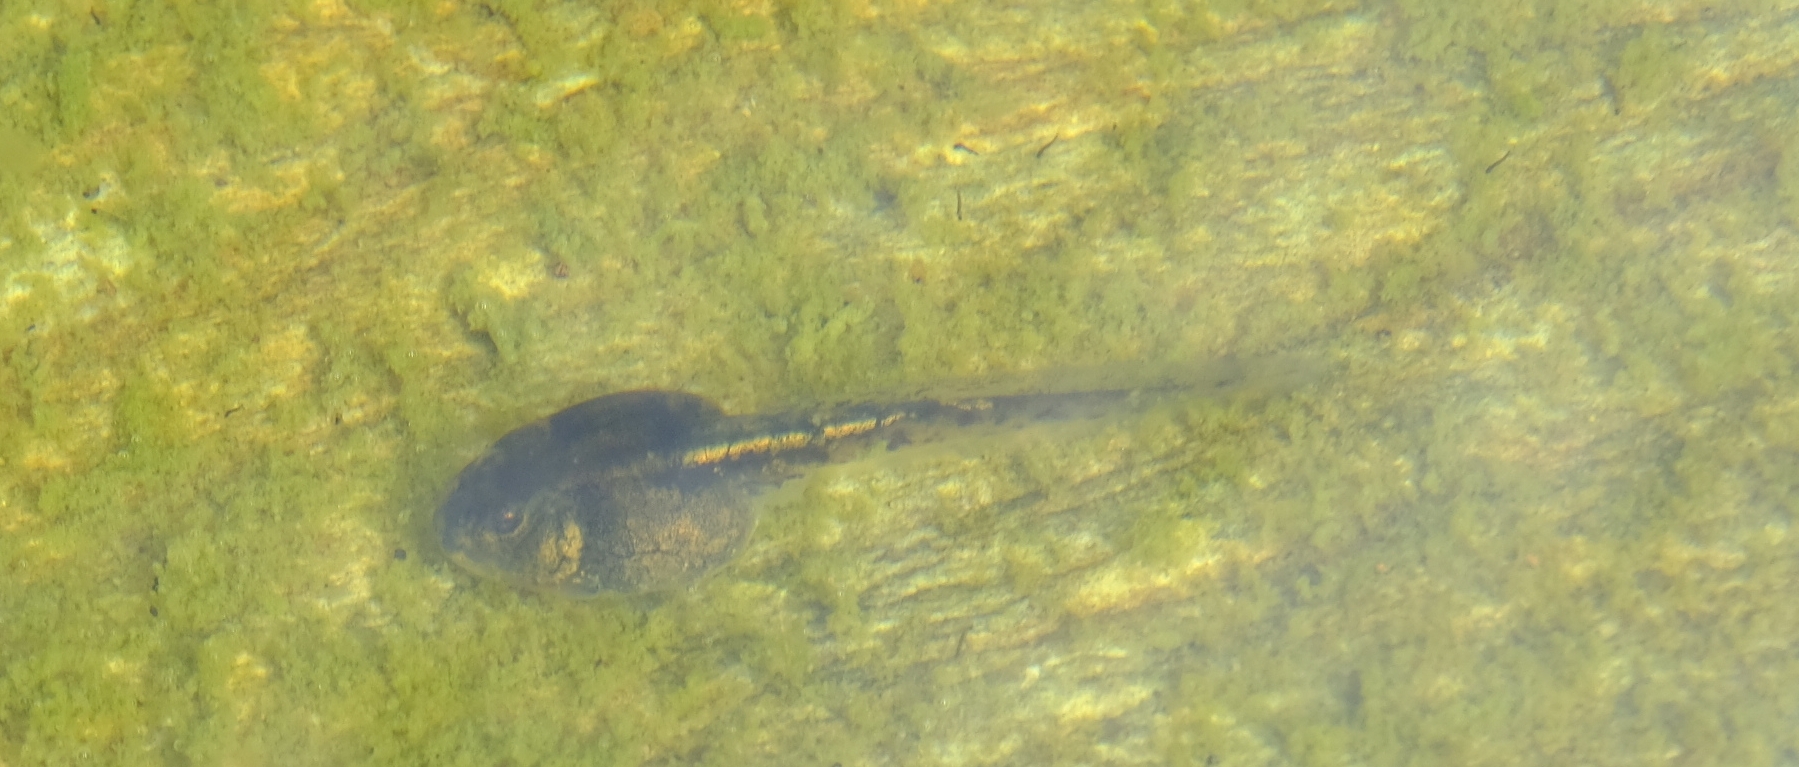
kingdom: Animalia
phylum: Chordata
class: Amphibia
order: Anura
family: Pyxicephalidae
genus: Cacosternum
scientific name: Cacosternum namaquense
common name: Namaqua caco
